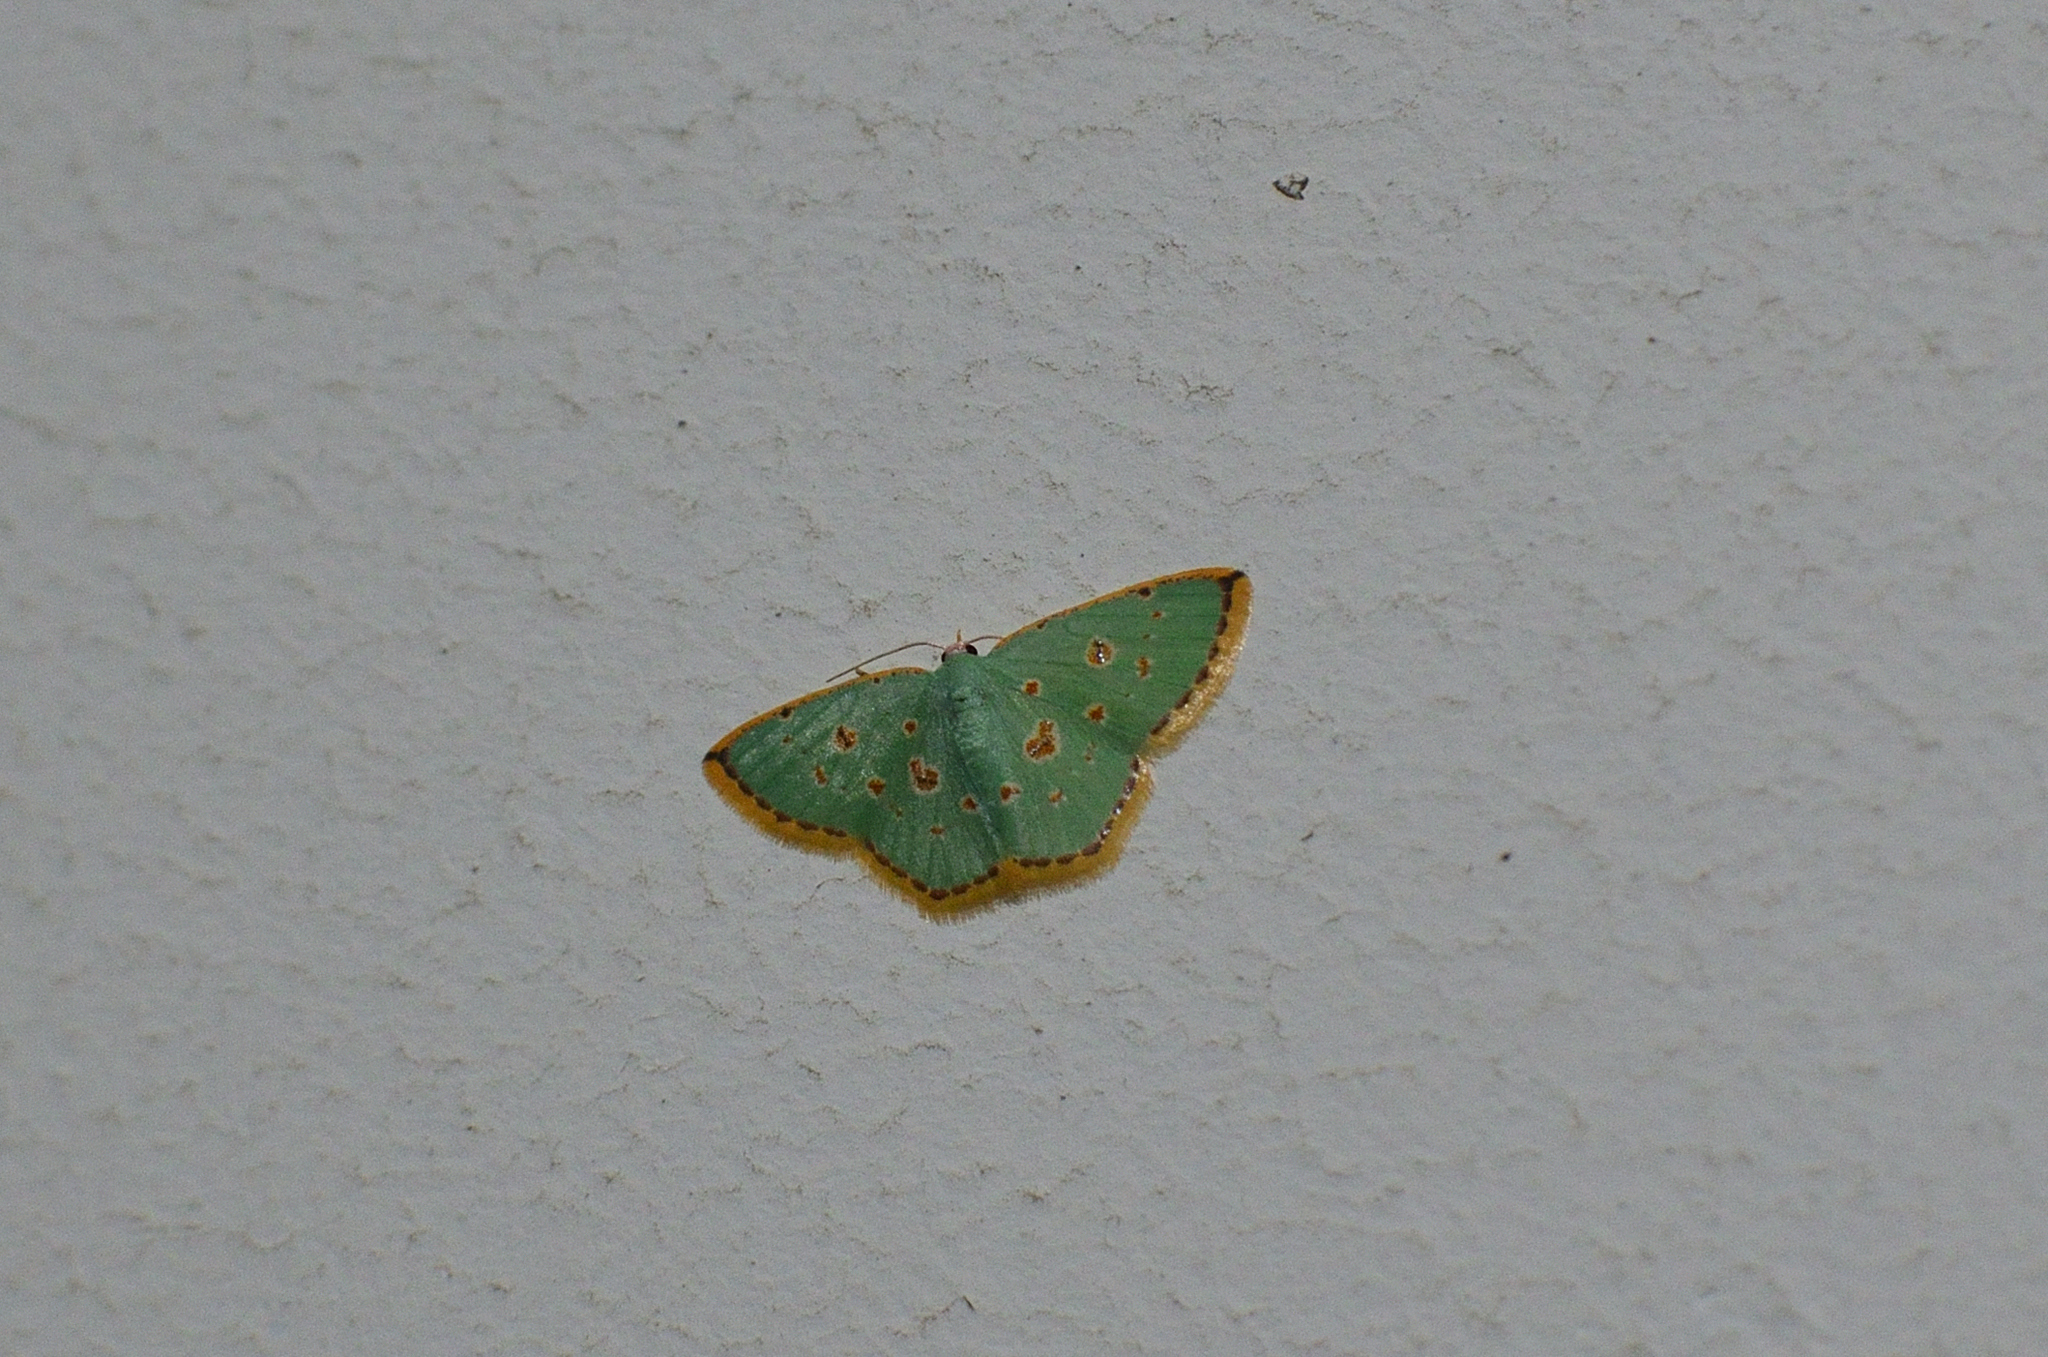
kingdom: Animalia
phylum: Arthropoda
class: Insecta
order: Lepidoptera
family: Geometridae
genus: Comostola
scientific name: Comostola laesaria
